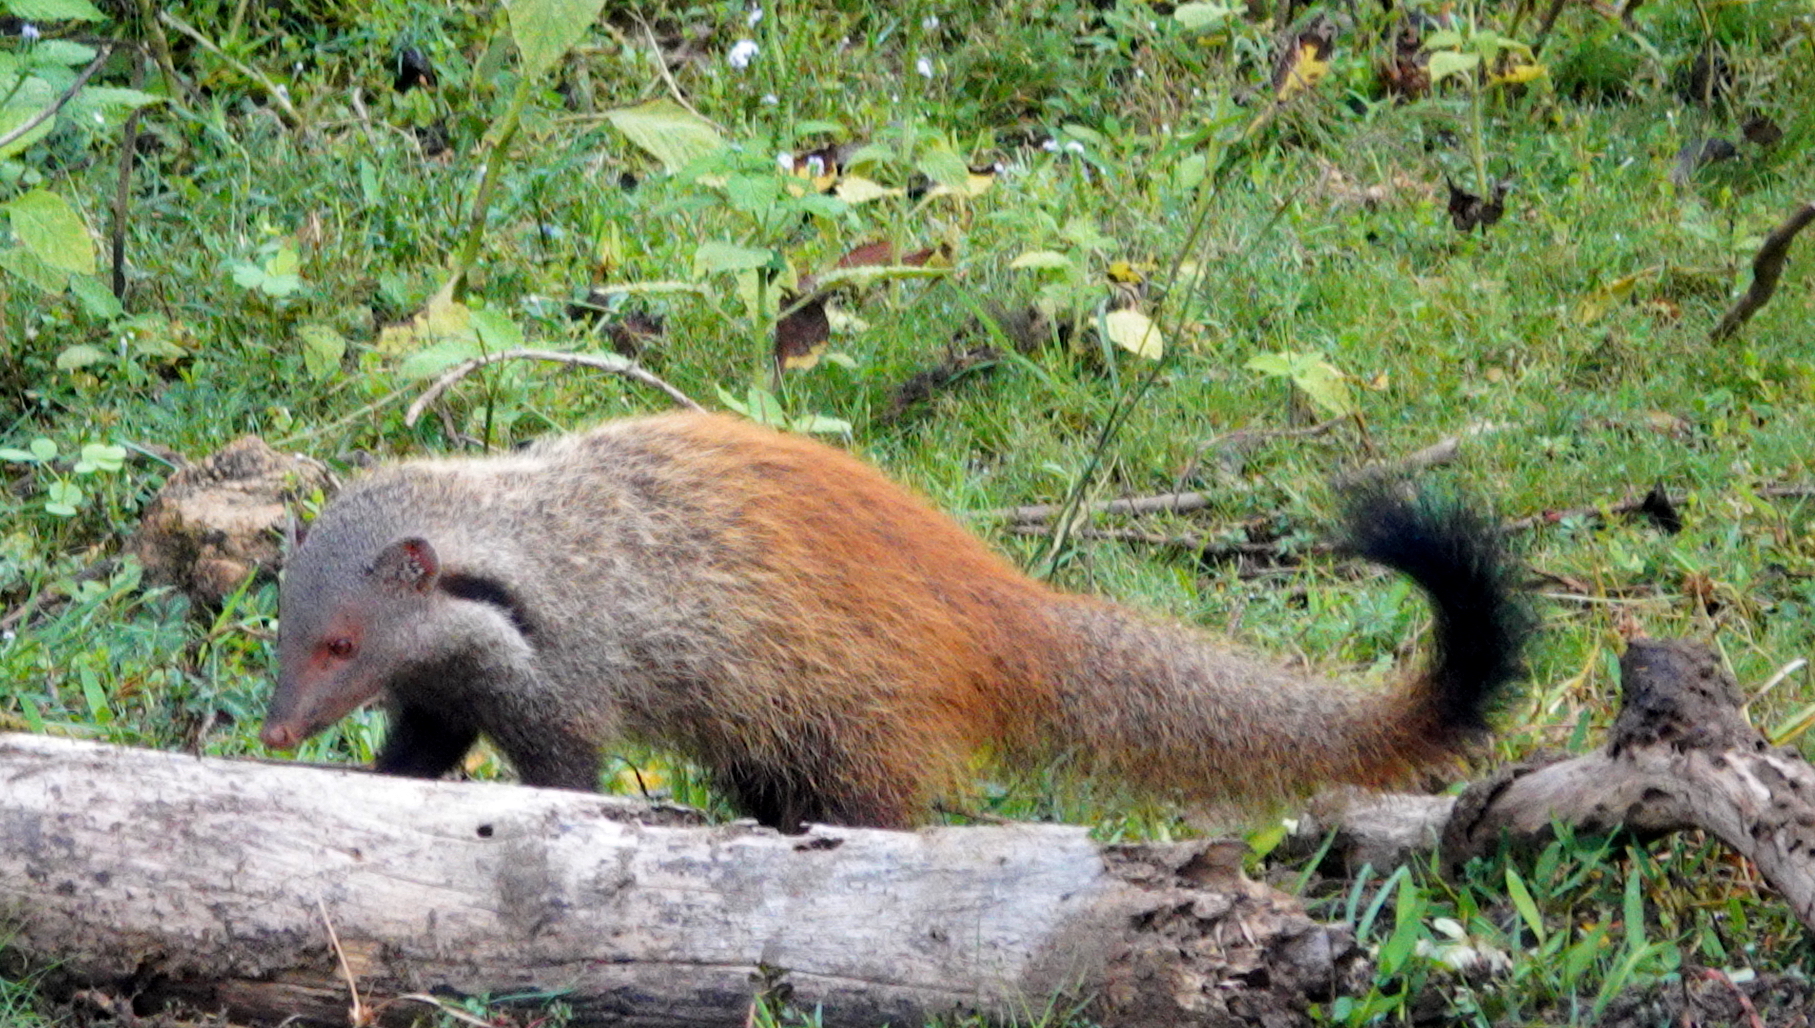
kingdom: Animalia
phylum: Chordata
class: Mammalia
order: Carnivora
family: Herpestidae
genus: Herpestes
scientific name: Herpestes vitticollis
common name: Stripe-necked mongoose
